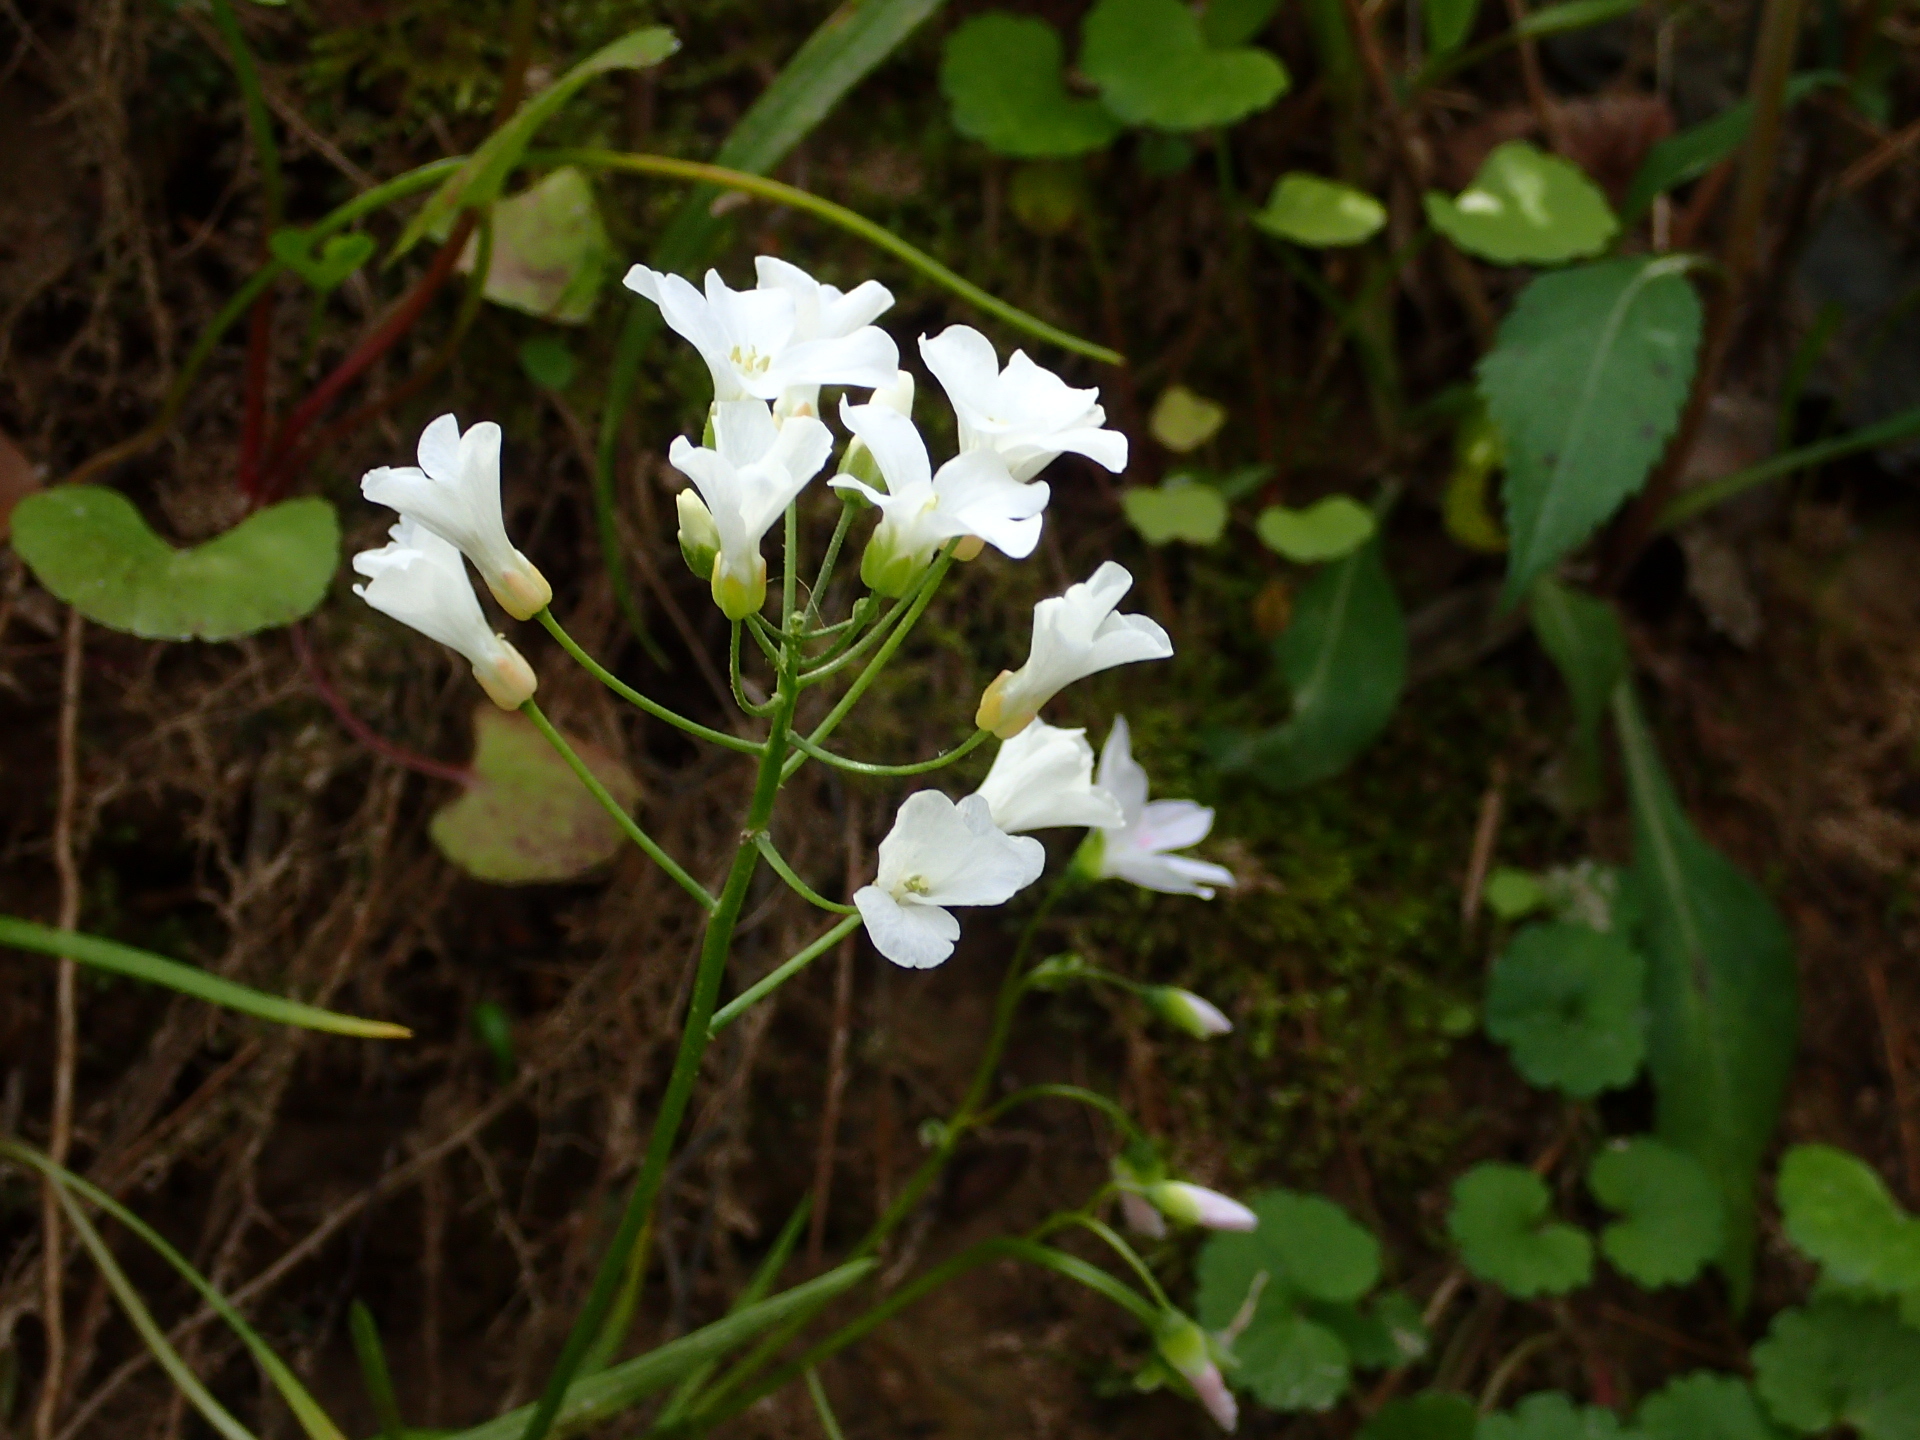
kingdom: Plantae
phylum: Tracheophyta
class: Magnoliopsida
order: Brassicales
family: Brassicaceae
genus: Cardamine
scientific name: Cardamine bulbosa
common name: Spring cress
